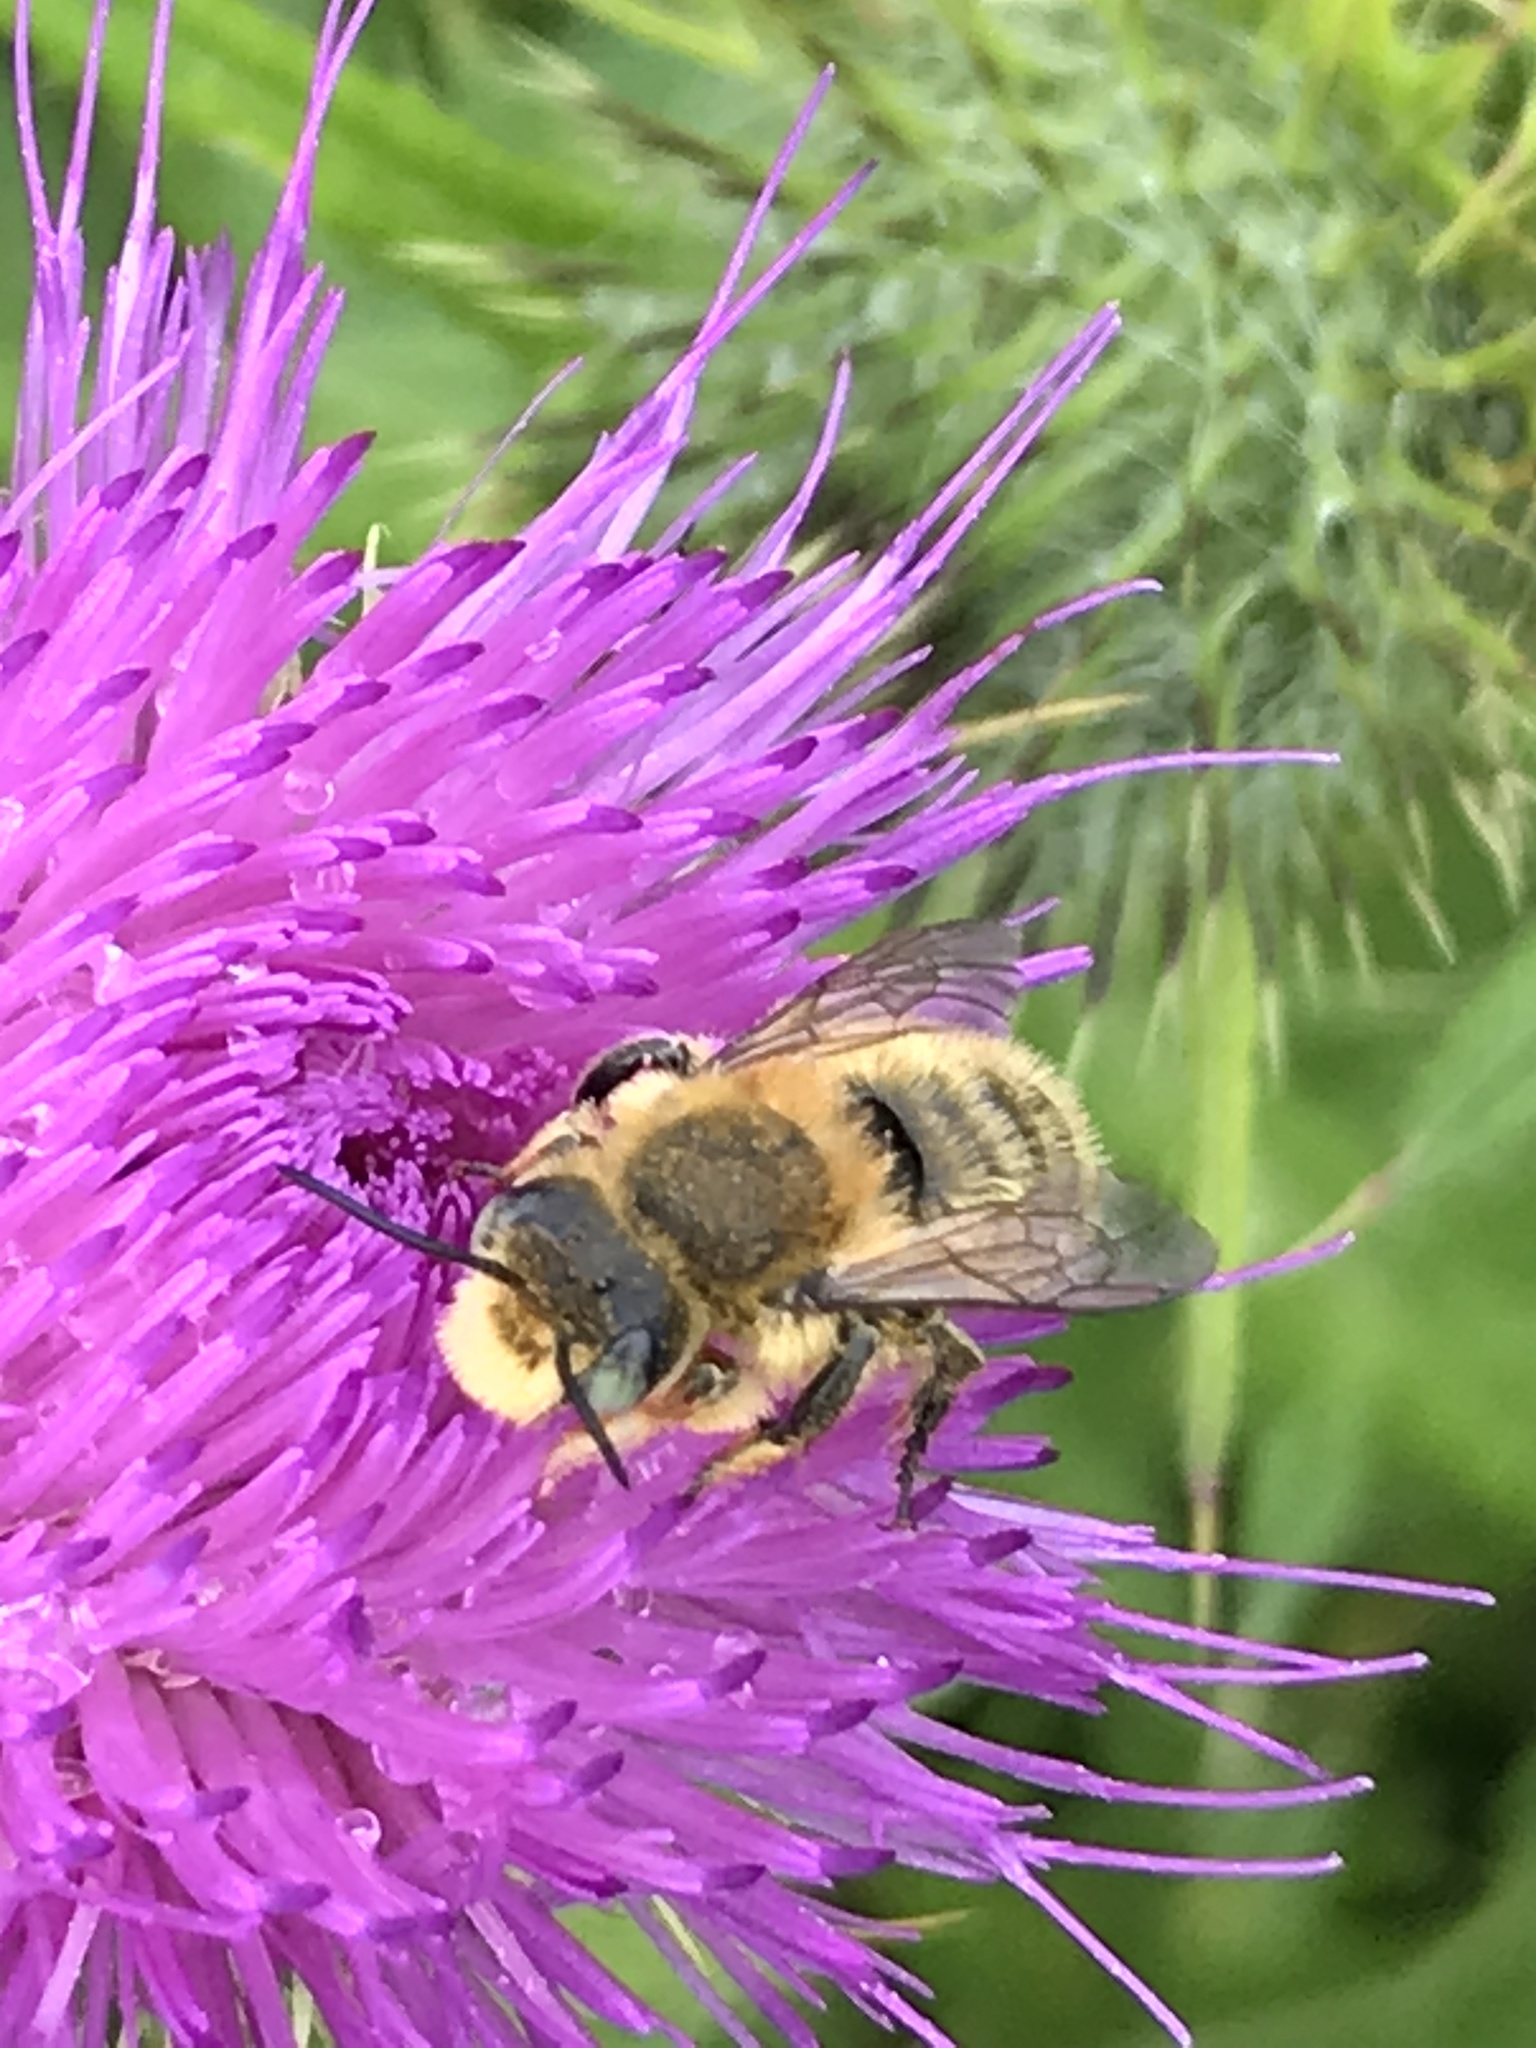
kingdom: Animalia
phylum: Arthropoda
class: Insecta
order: Hymenoptera
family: Megachilidae
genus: Megachile
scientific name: Megachile perihirta
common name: Western leafcutter
